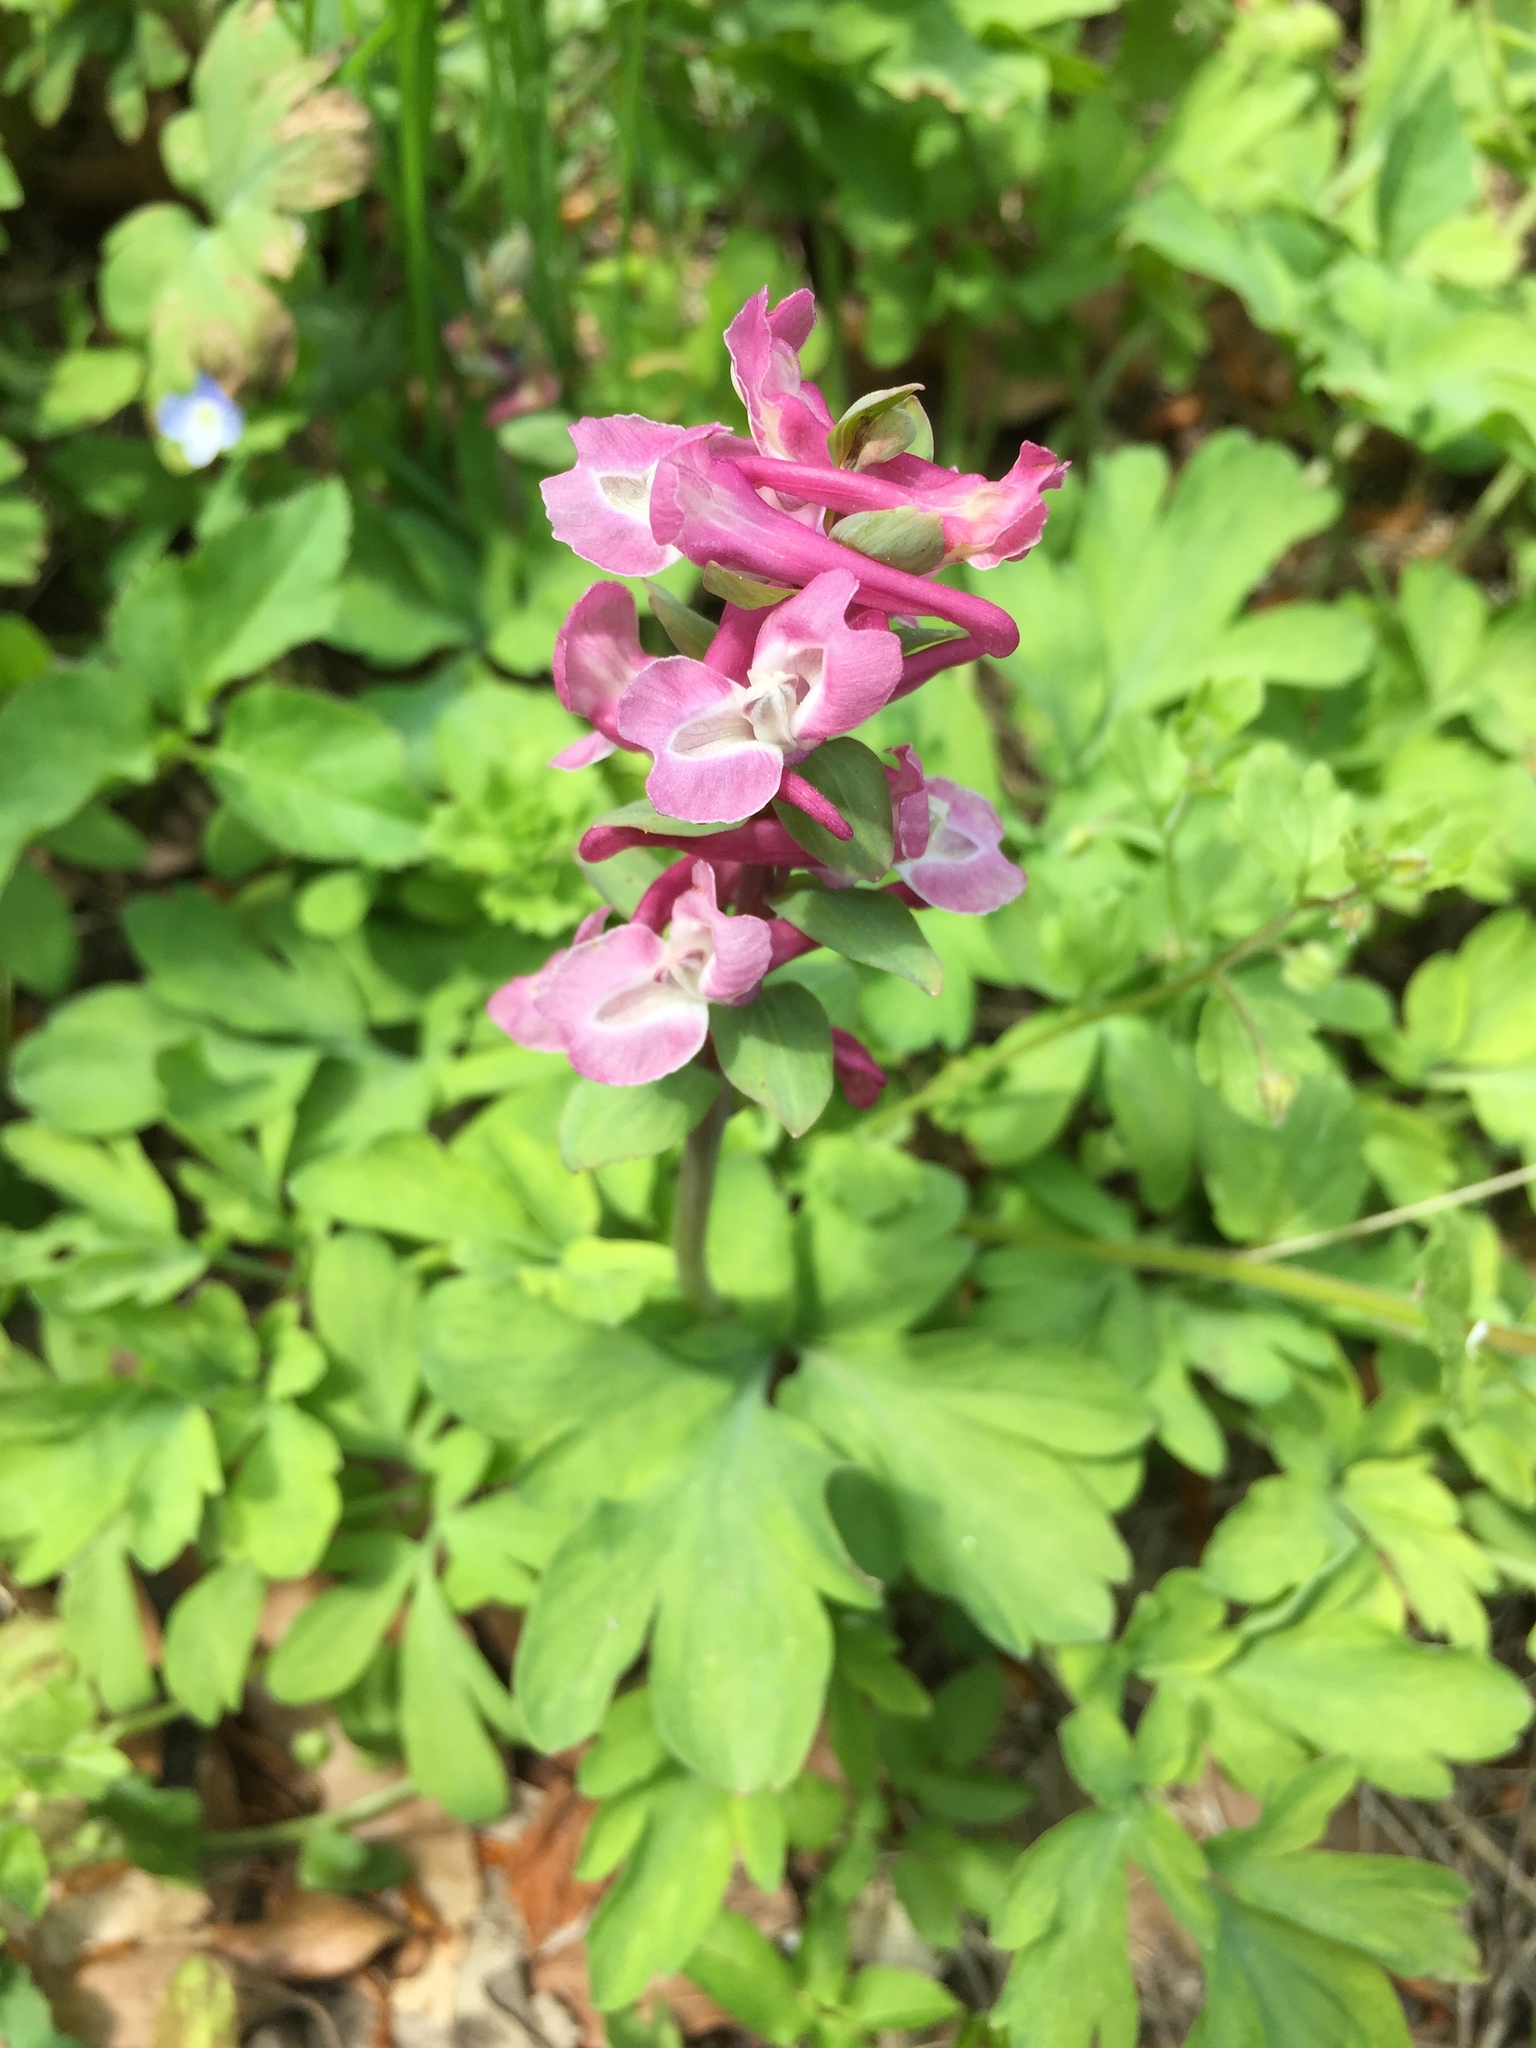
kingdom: Plantae
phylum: Tracheophyta
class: Magnoliopsida
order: Ranunculales
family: Papaveraceae
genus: Corydalis
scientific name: Corydalis cava
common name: Hollowroot
